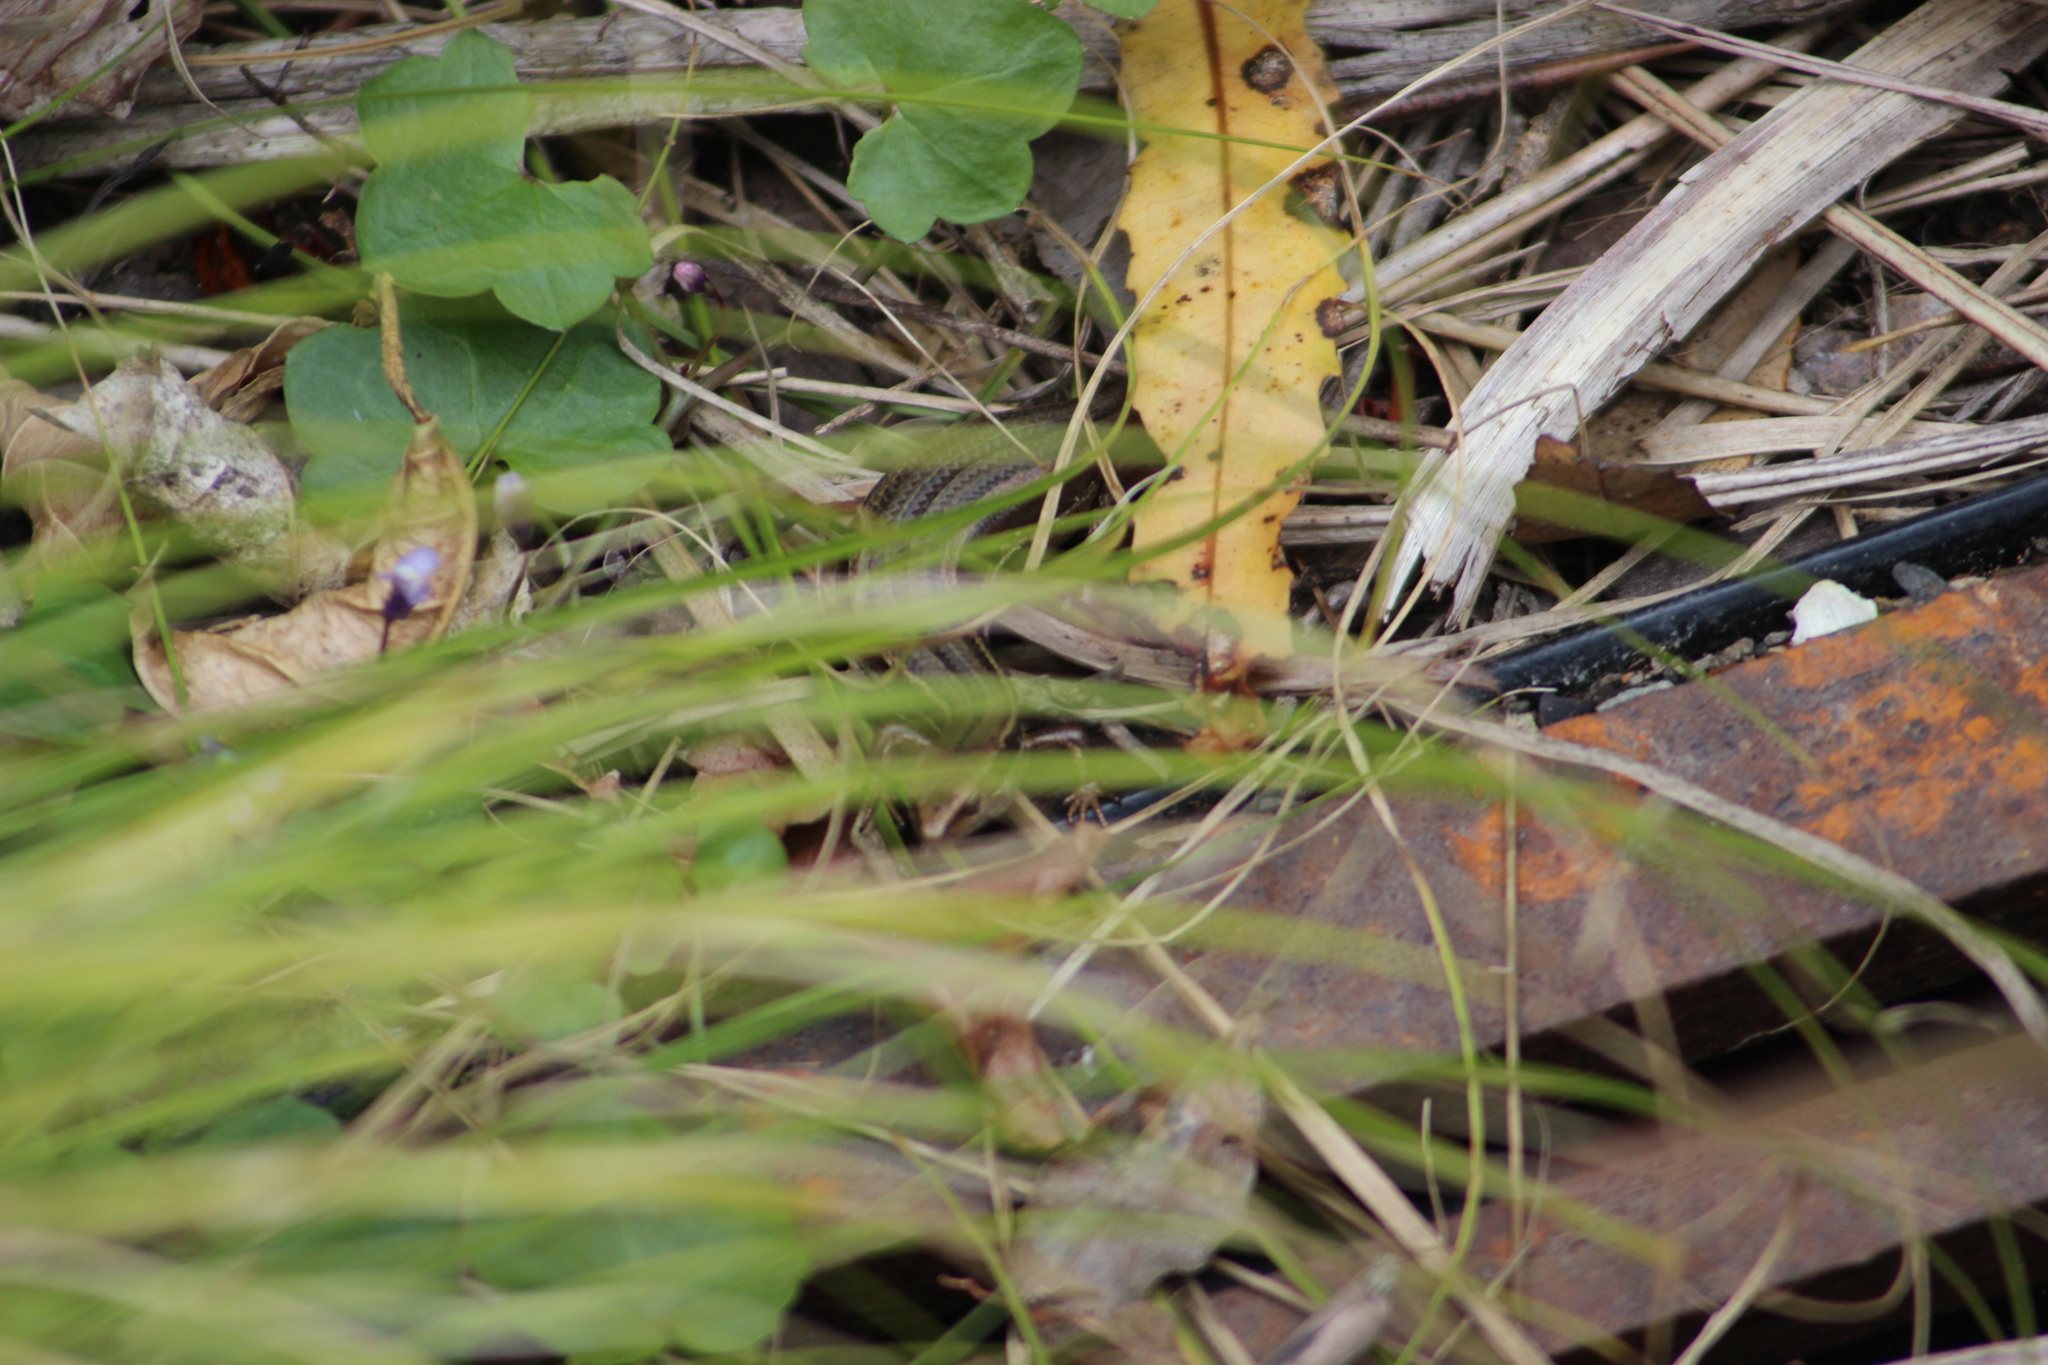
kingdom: Animalia
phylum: Chordata
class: Squamata
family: Scincidae
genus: Oligosoma
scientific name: Oligosoma polychroma
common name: Common new zealand skink
